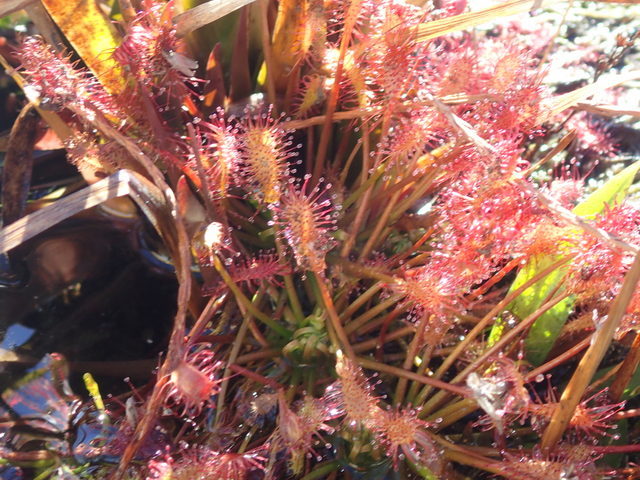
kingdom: Plantae
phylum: Tracheophyta
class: Magnoliopsida
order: Caryophyllales
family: Droseraceae
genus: Drosera
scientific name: Drosera intermedia
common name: Oblong-leaved sundew
